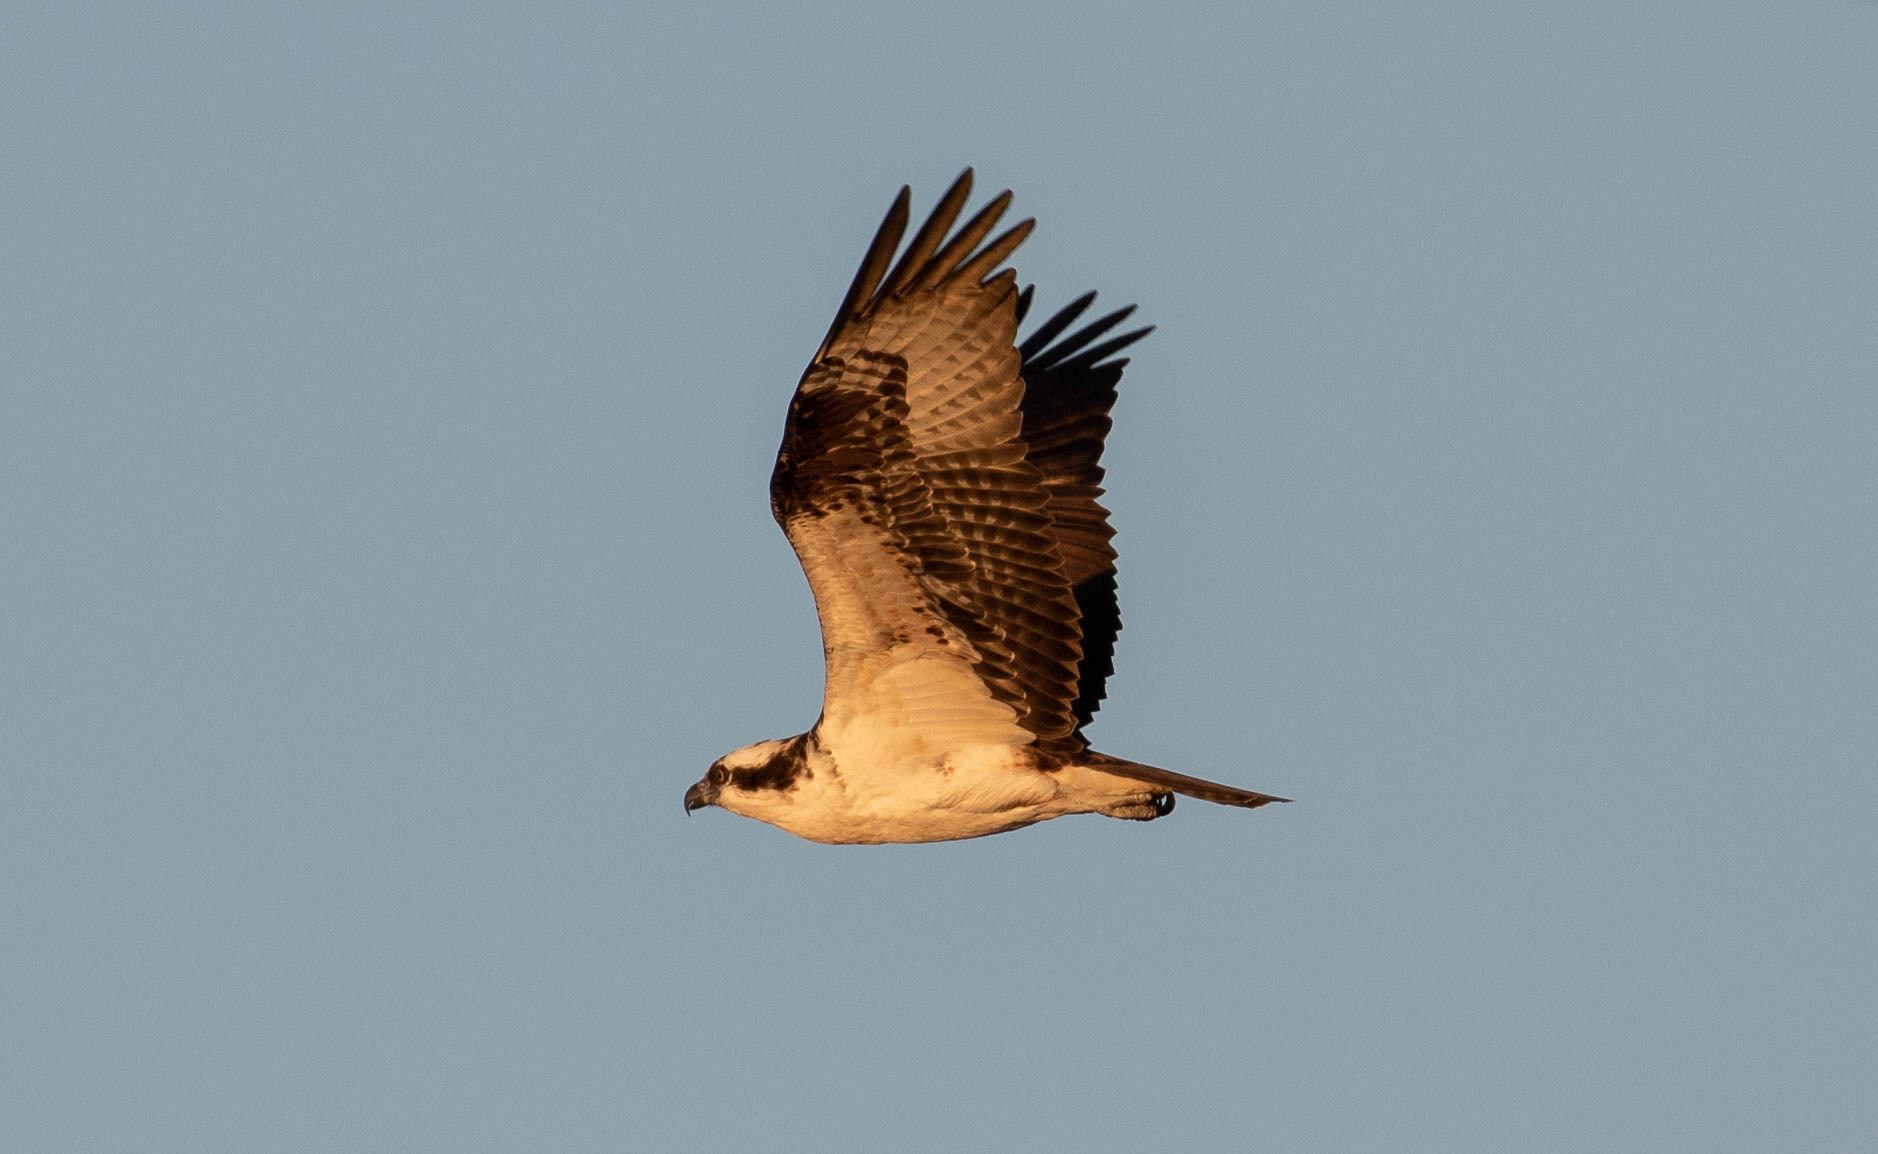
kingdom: Animalia
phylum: Chordata
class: Aves
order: Accipitriformes
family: Pandionidae
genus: Pandion
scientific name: Pandion haliaetus
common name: Osprey
